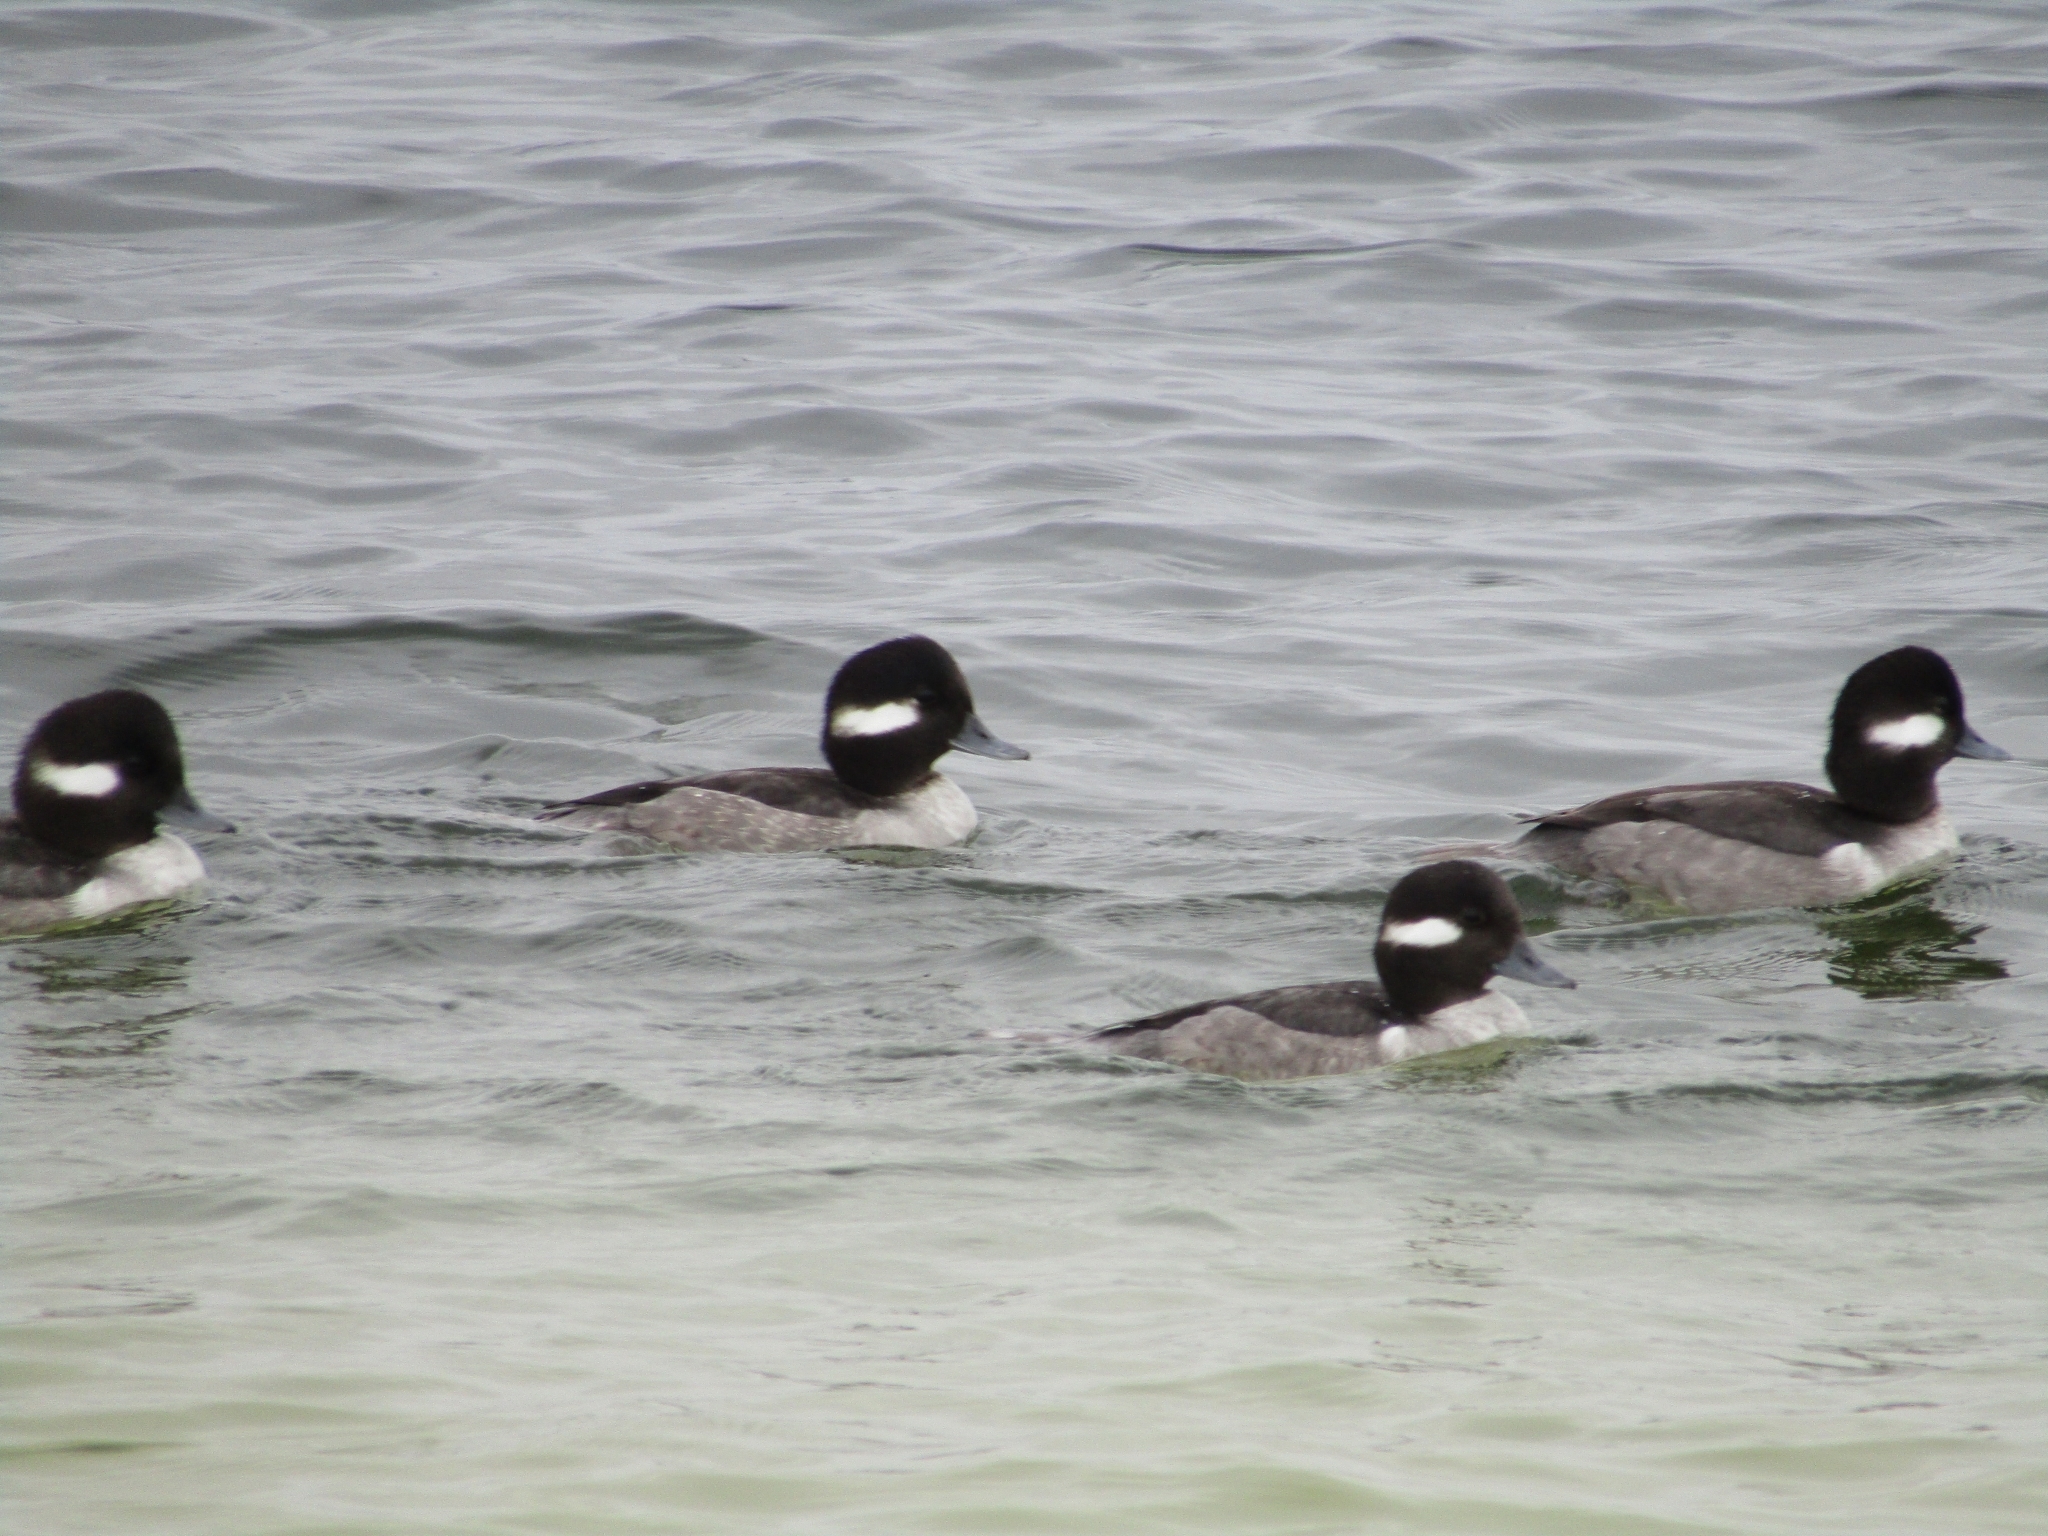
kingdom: Animalia
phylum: Chordata
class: Aves
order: Anseriformes
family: Anatidae
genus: Bucephala
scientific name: Bucephala albeola
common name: Bufflehead
